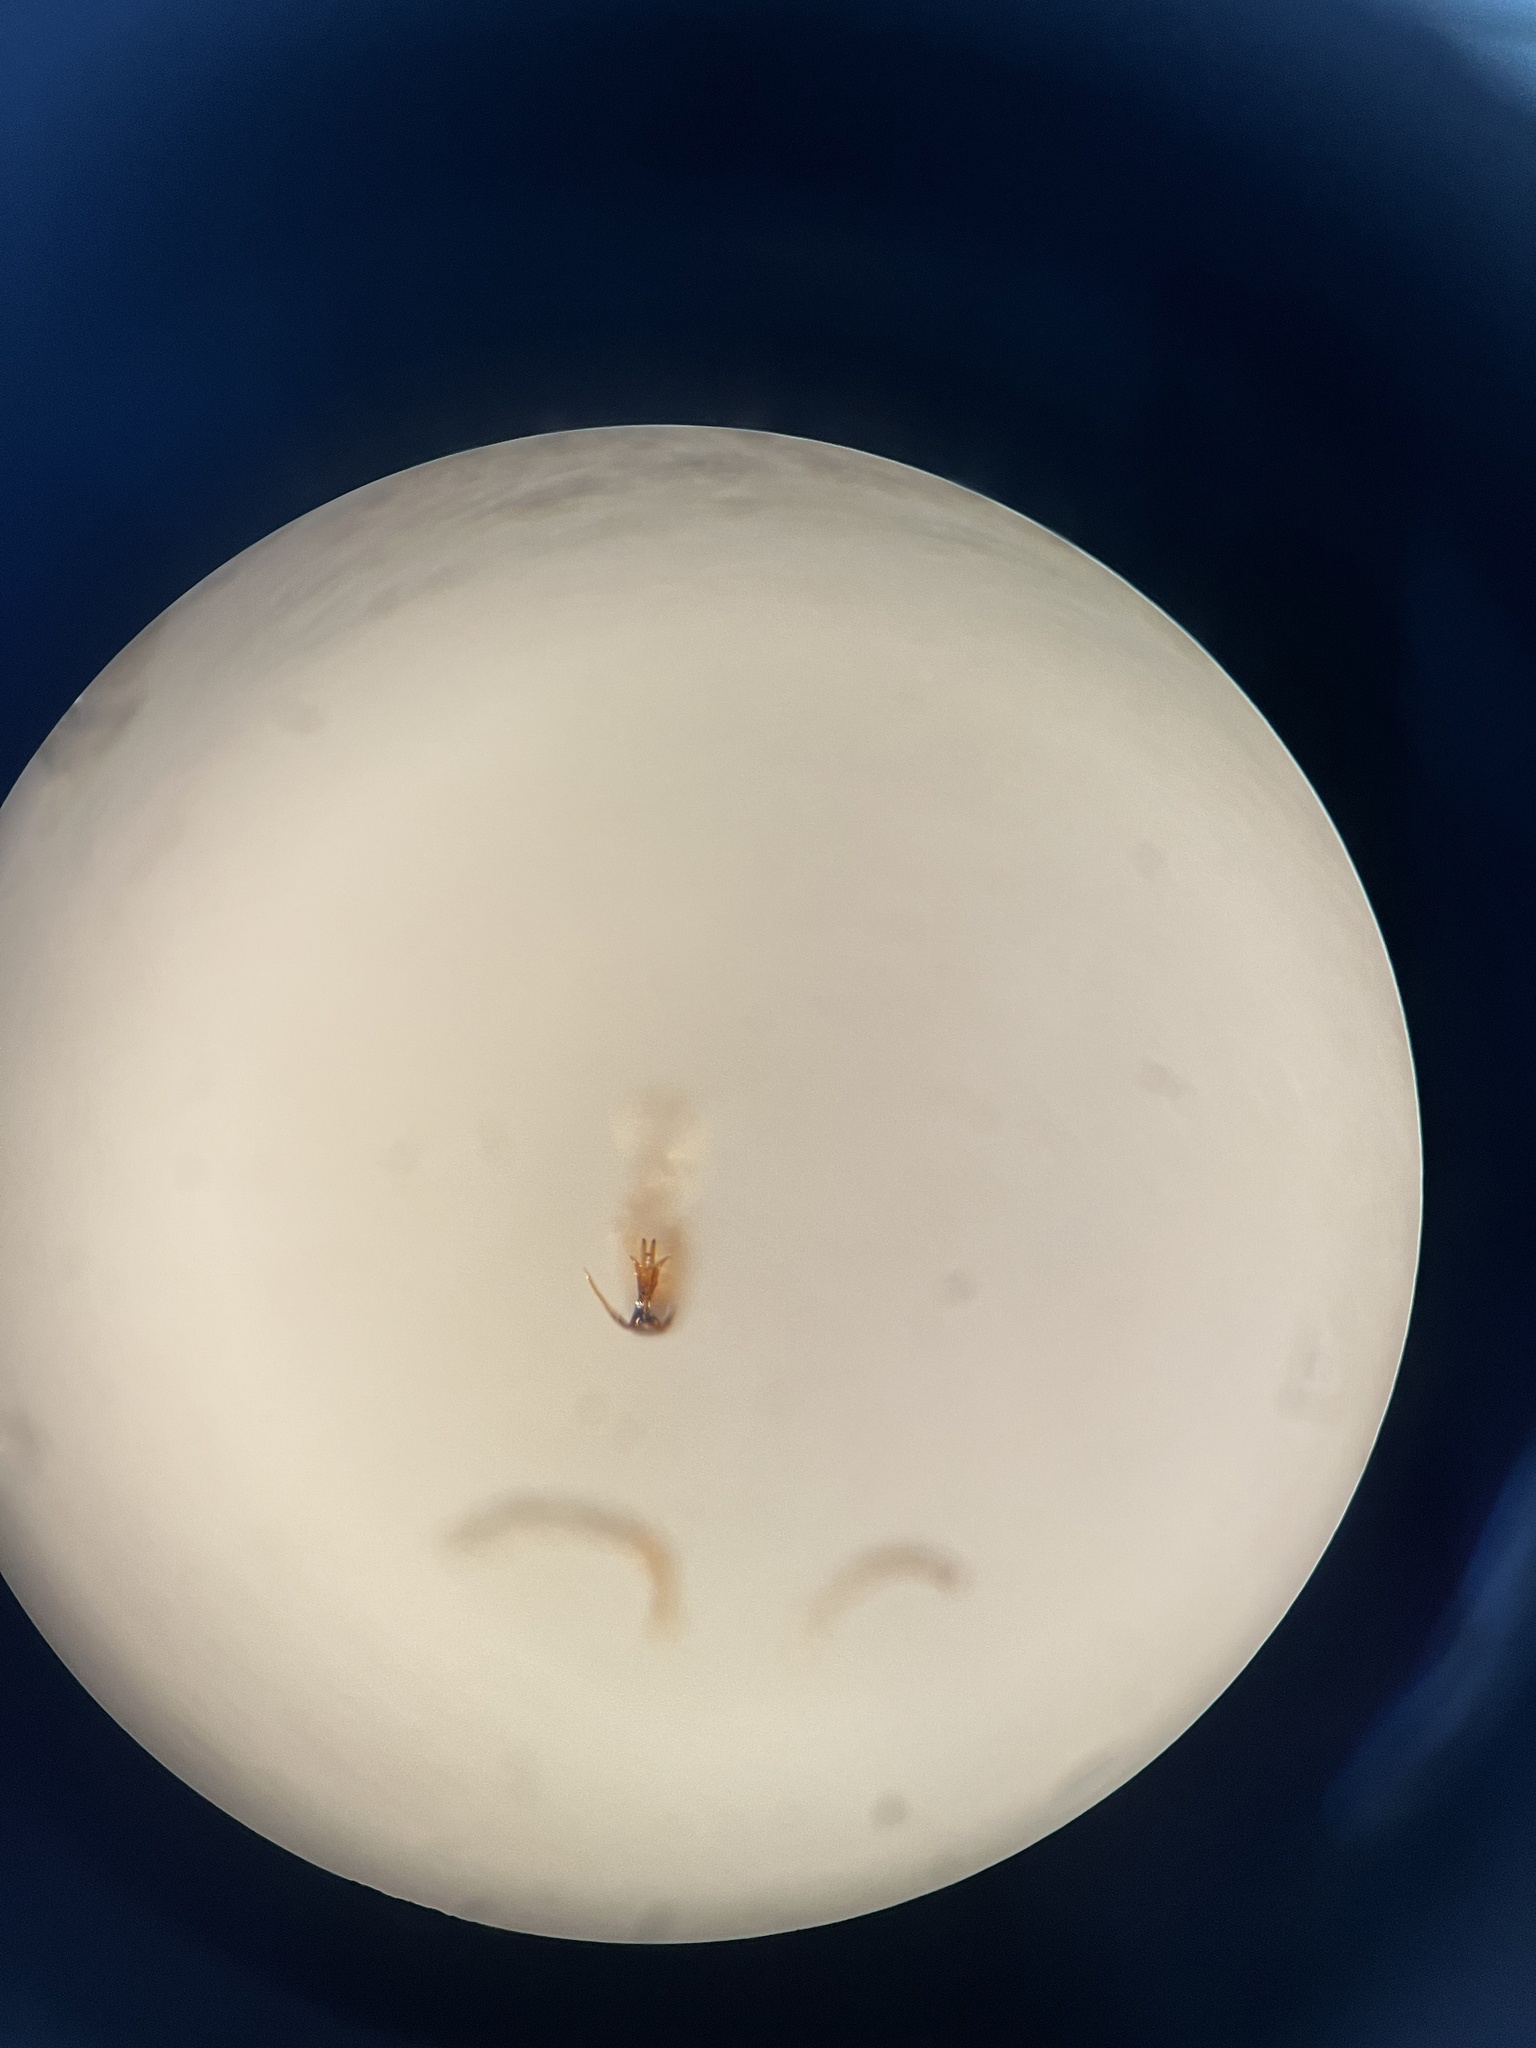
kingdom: Animalia
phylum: Arthropoda
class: Insecta
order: Hemiptera
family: Cicadellidae
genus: Edwardsiana
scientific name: Edwardsiana ulmiphagus
